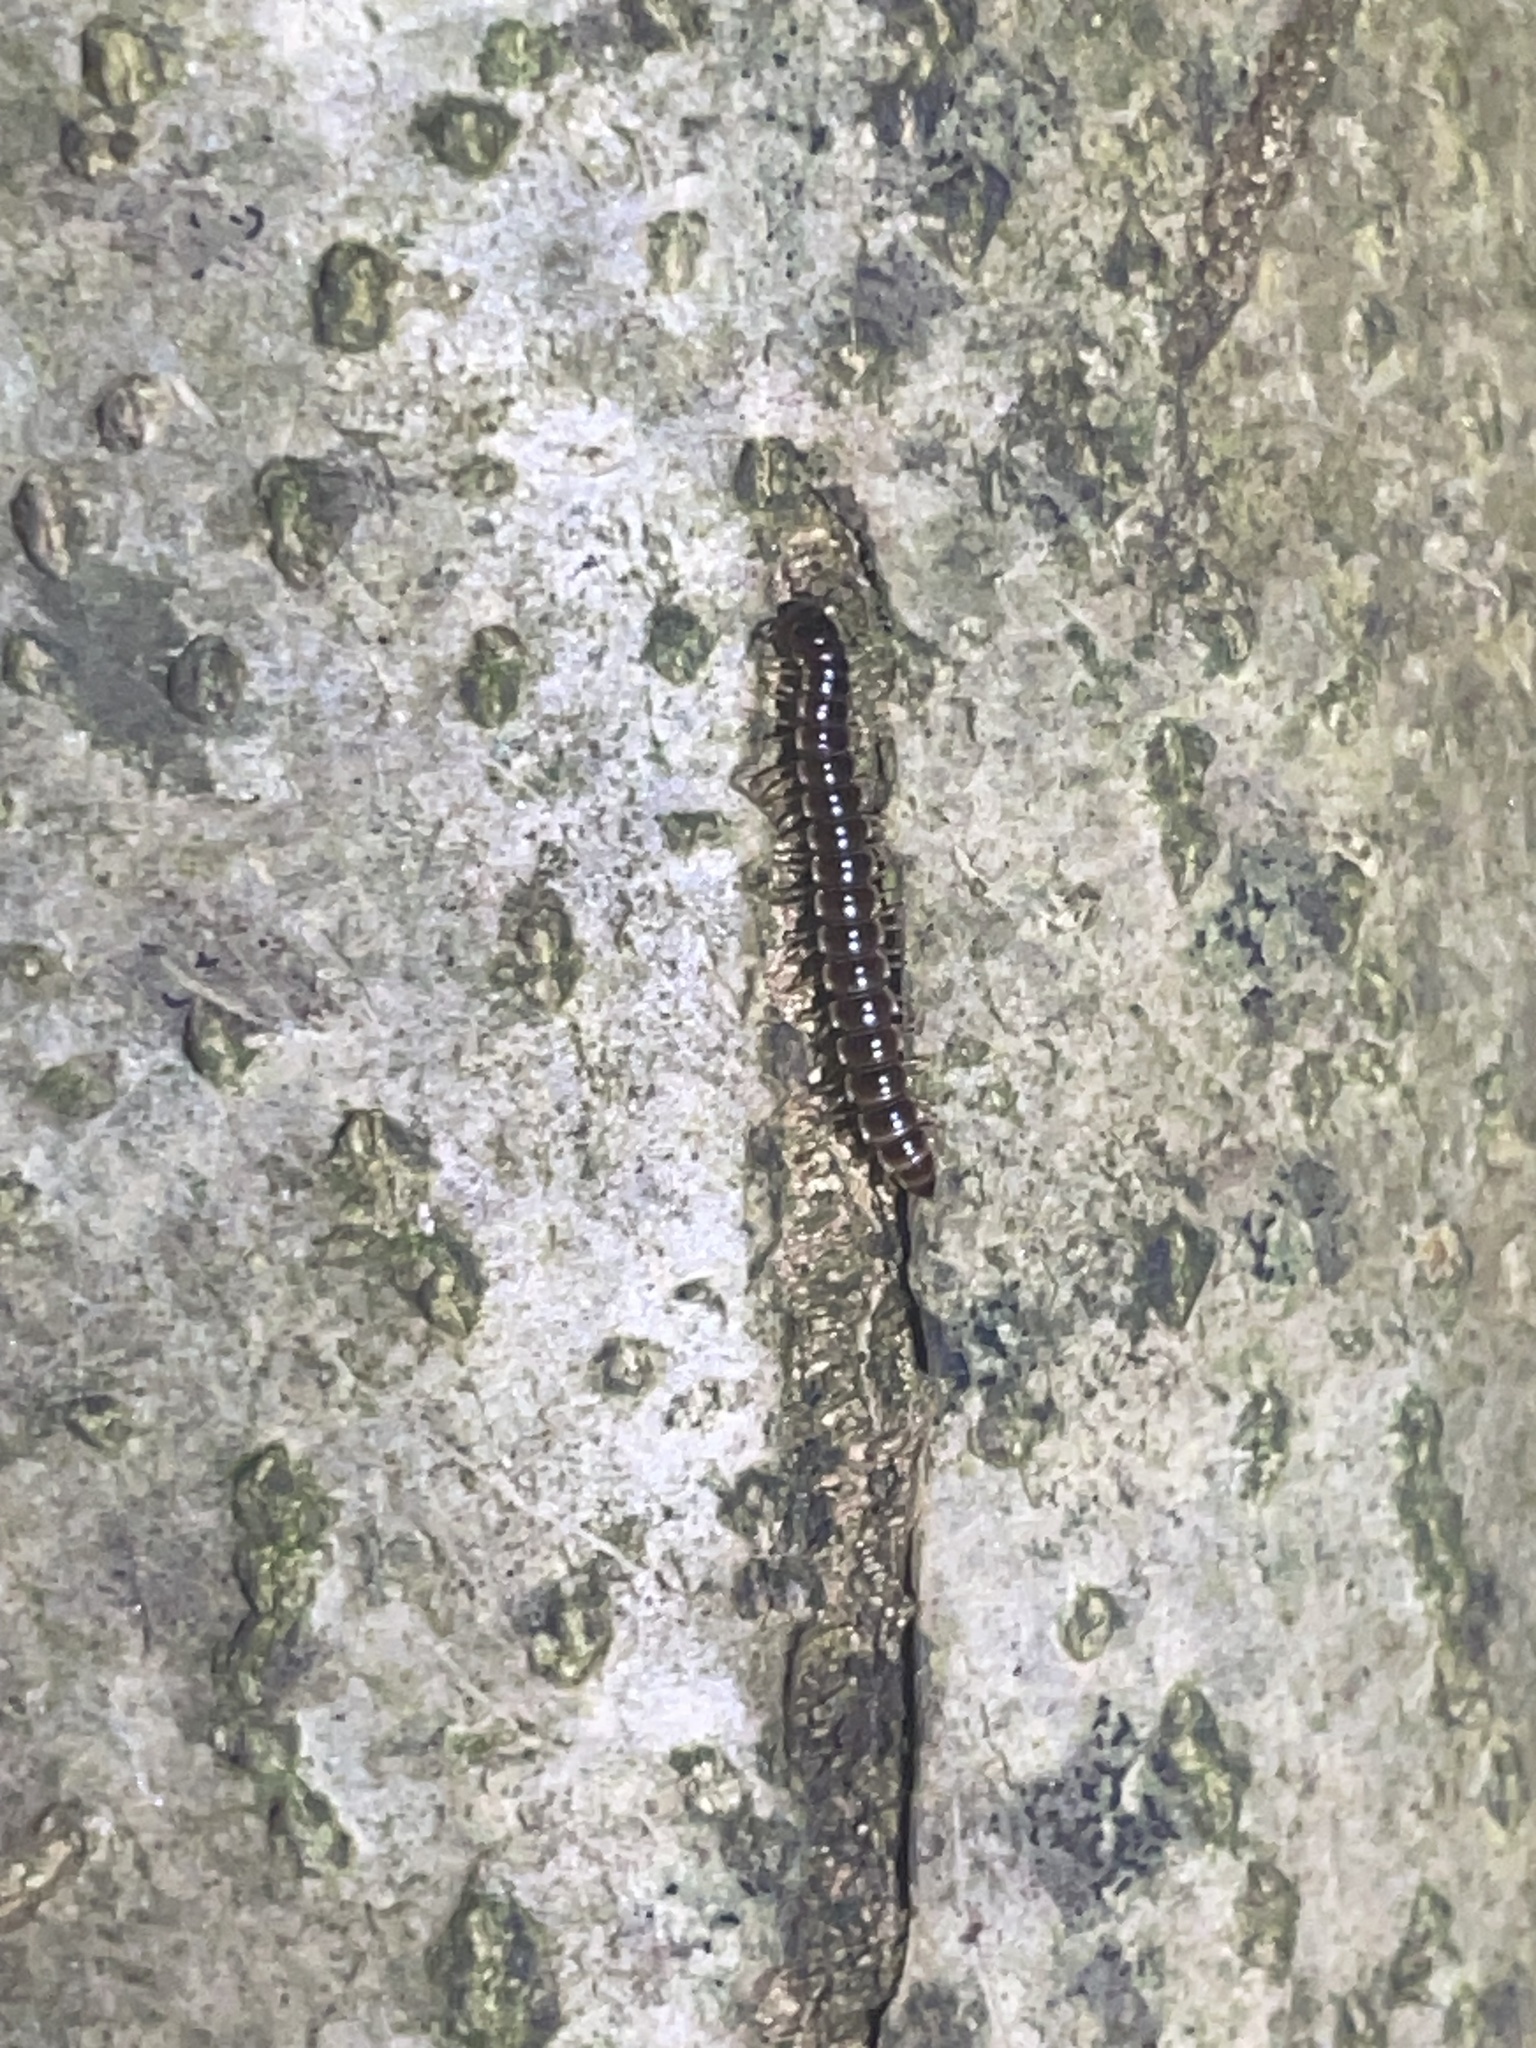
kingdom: Animalia
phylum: Arthropoda
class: Diplopoda
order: Polydesmida
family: Paradoxosomatidae
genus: Oxidus
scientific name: Oxidus gracilis
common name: Greenhouse millipede
